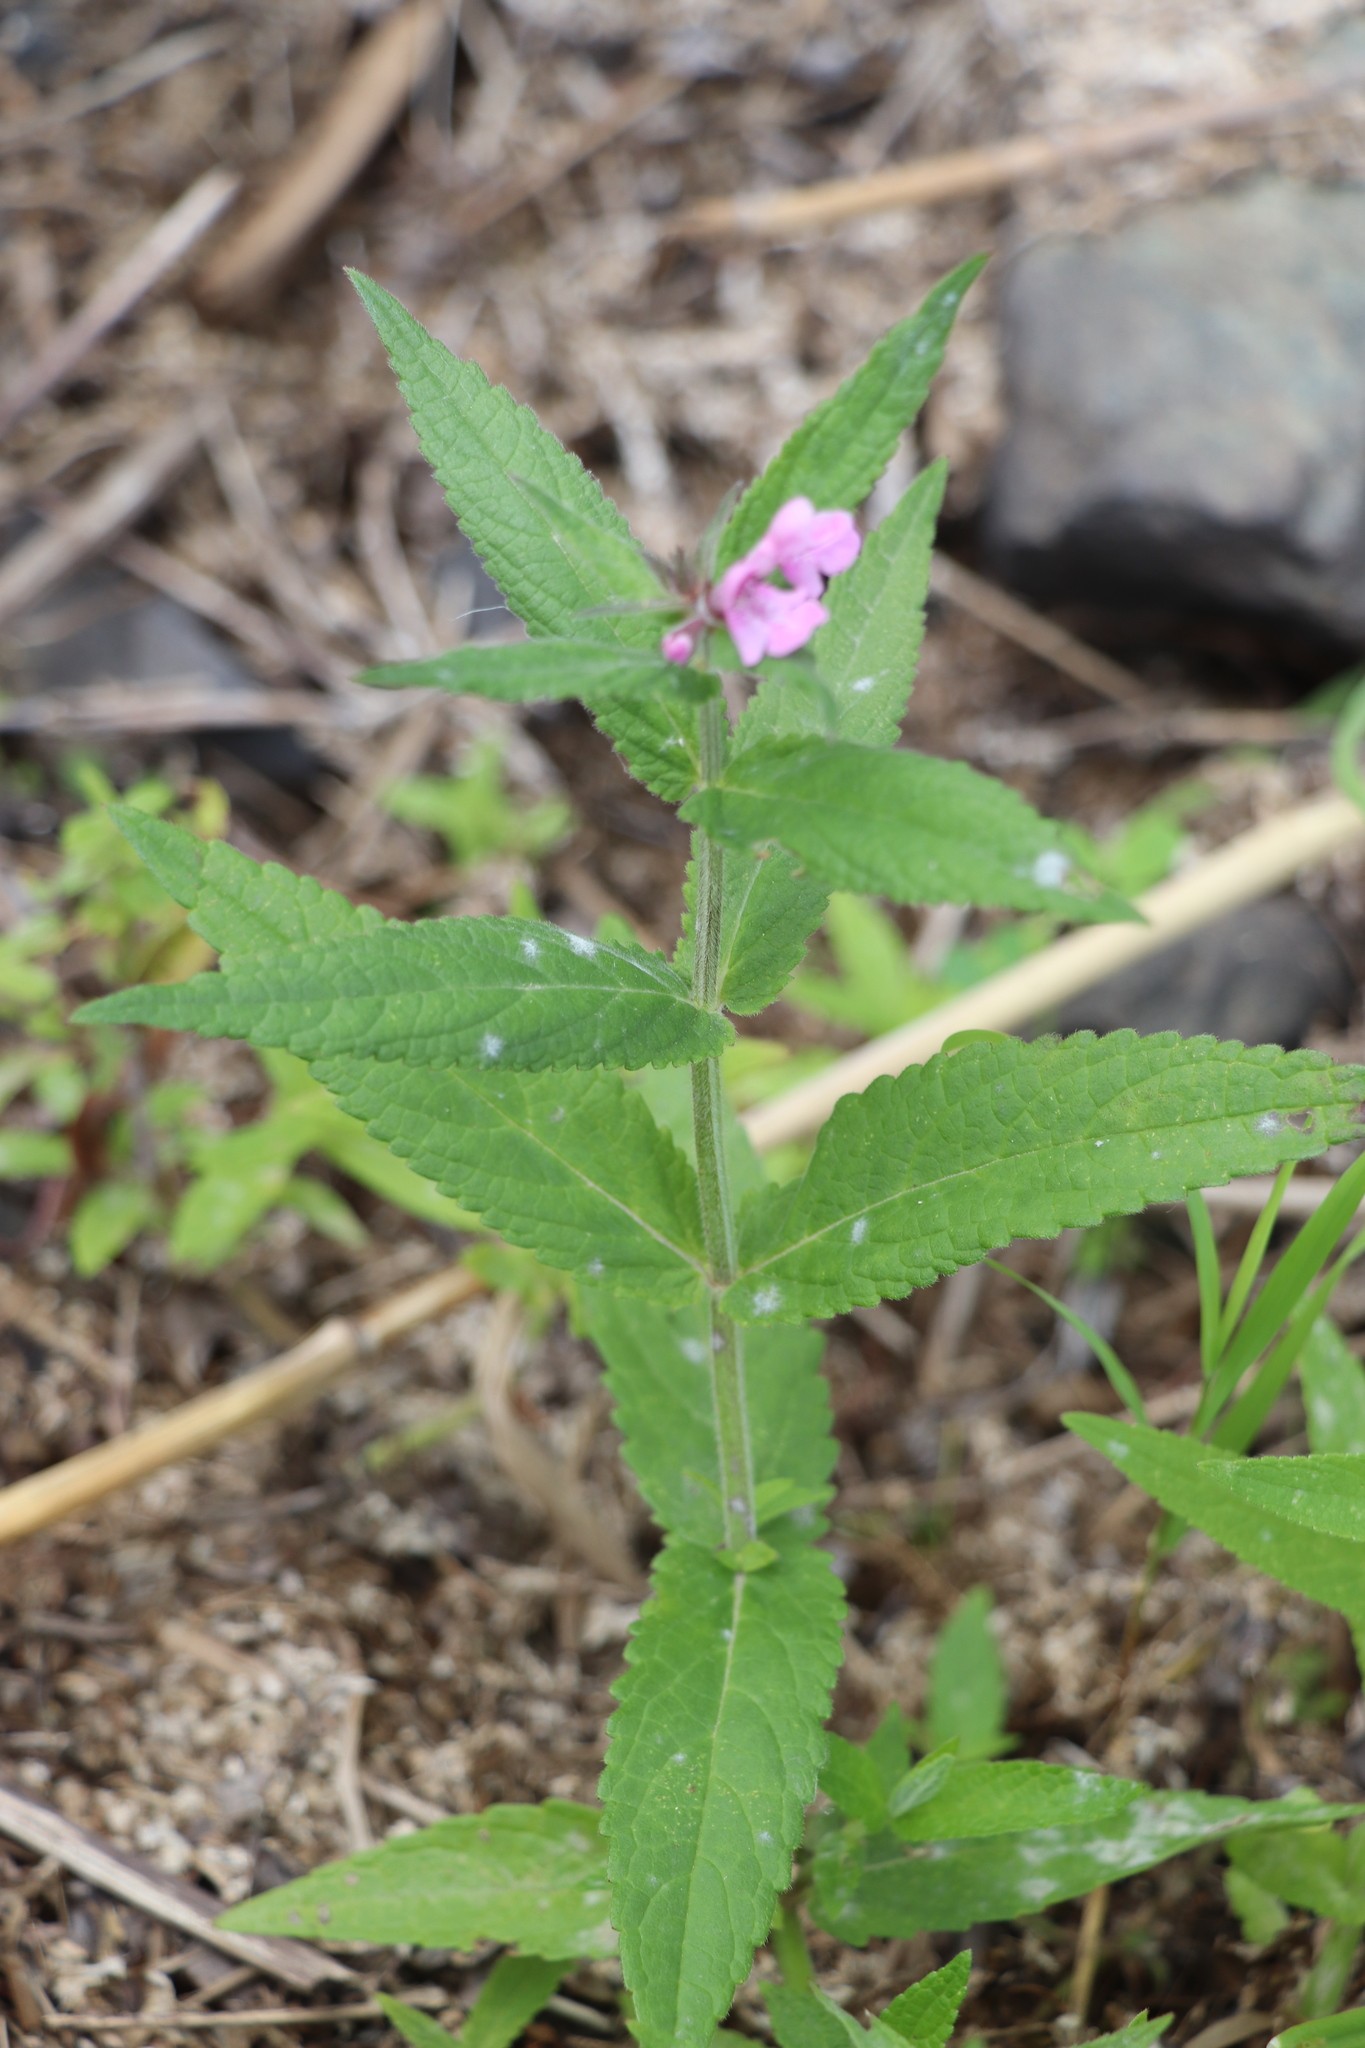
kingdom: Plantae
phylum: Tracheophyta
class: Magnoliopsida
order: Lamiales
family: Lamiaceae
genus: Stachys
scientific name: Stachys palustris
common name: Marsh woundwort
